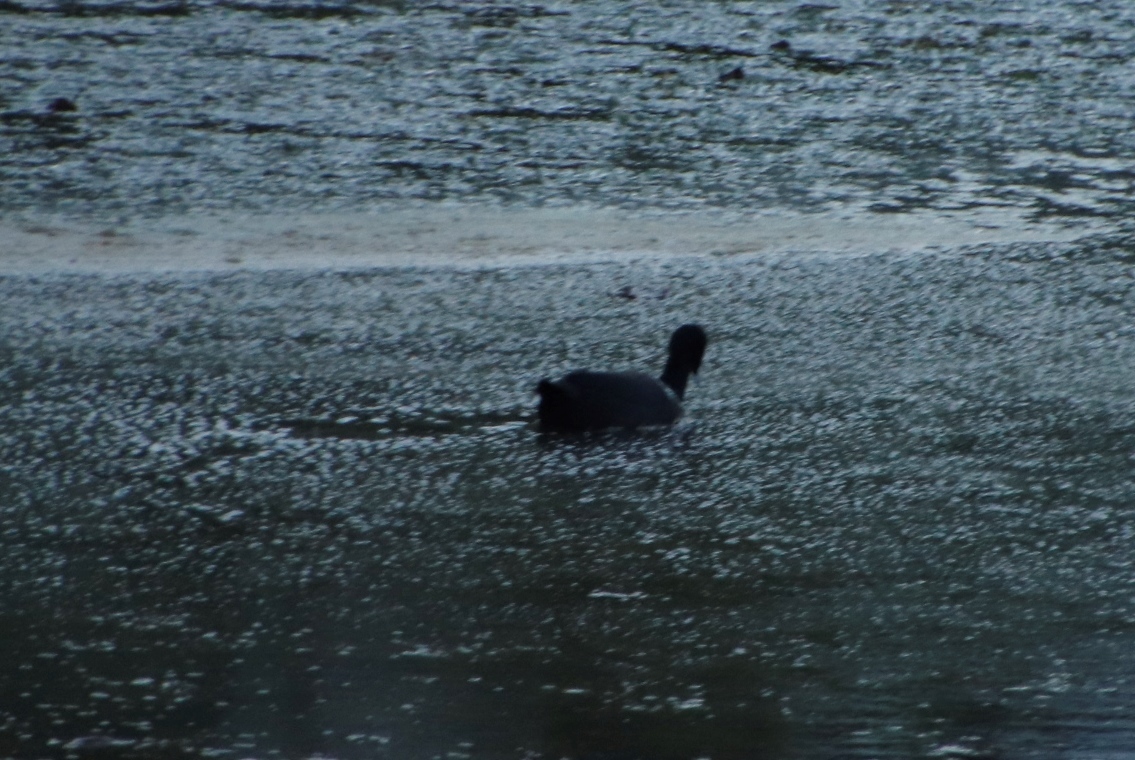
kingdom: Animalia
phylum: Chordata
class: Aves
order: Gruiformes
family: Rallidae
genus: Fulica
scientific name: Fulica cristata
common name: Red-knobbed coot
